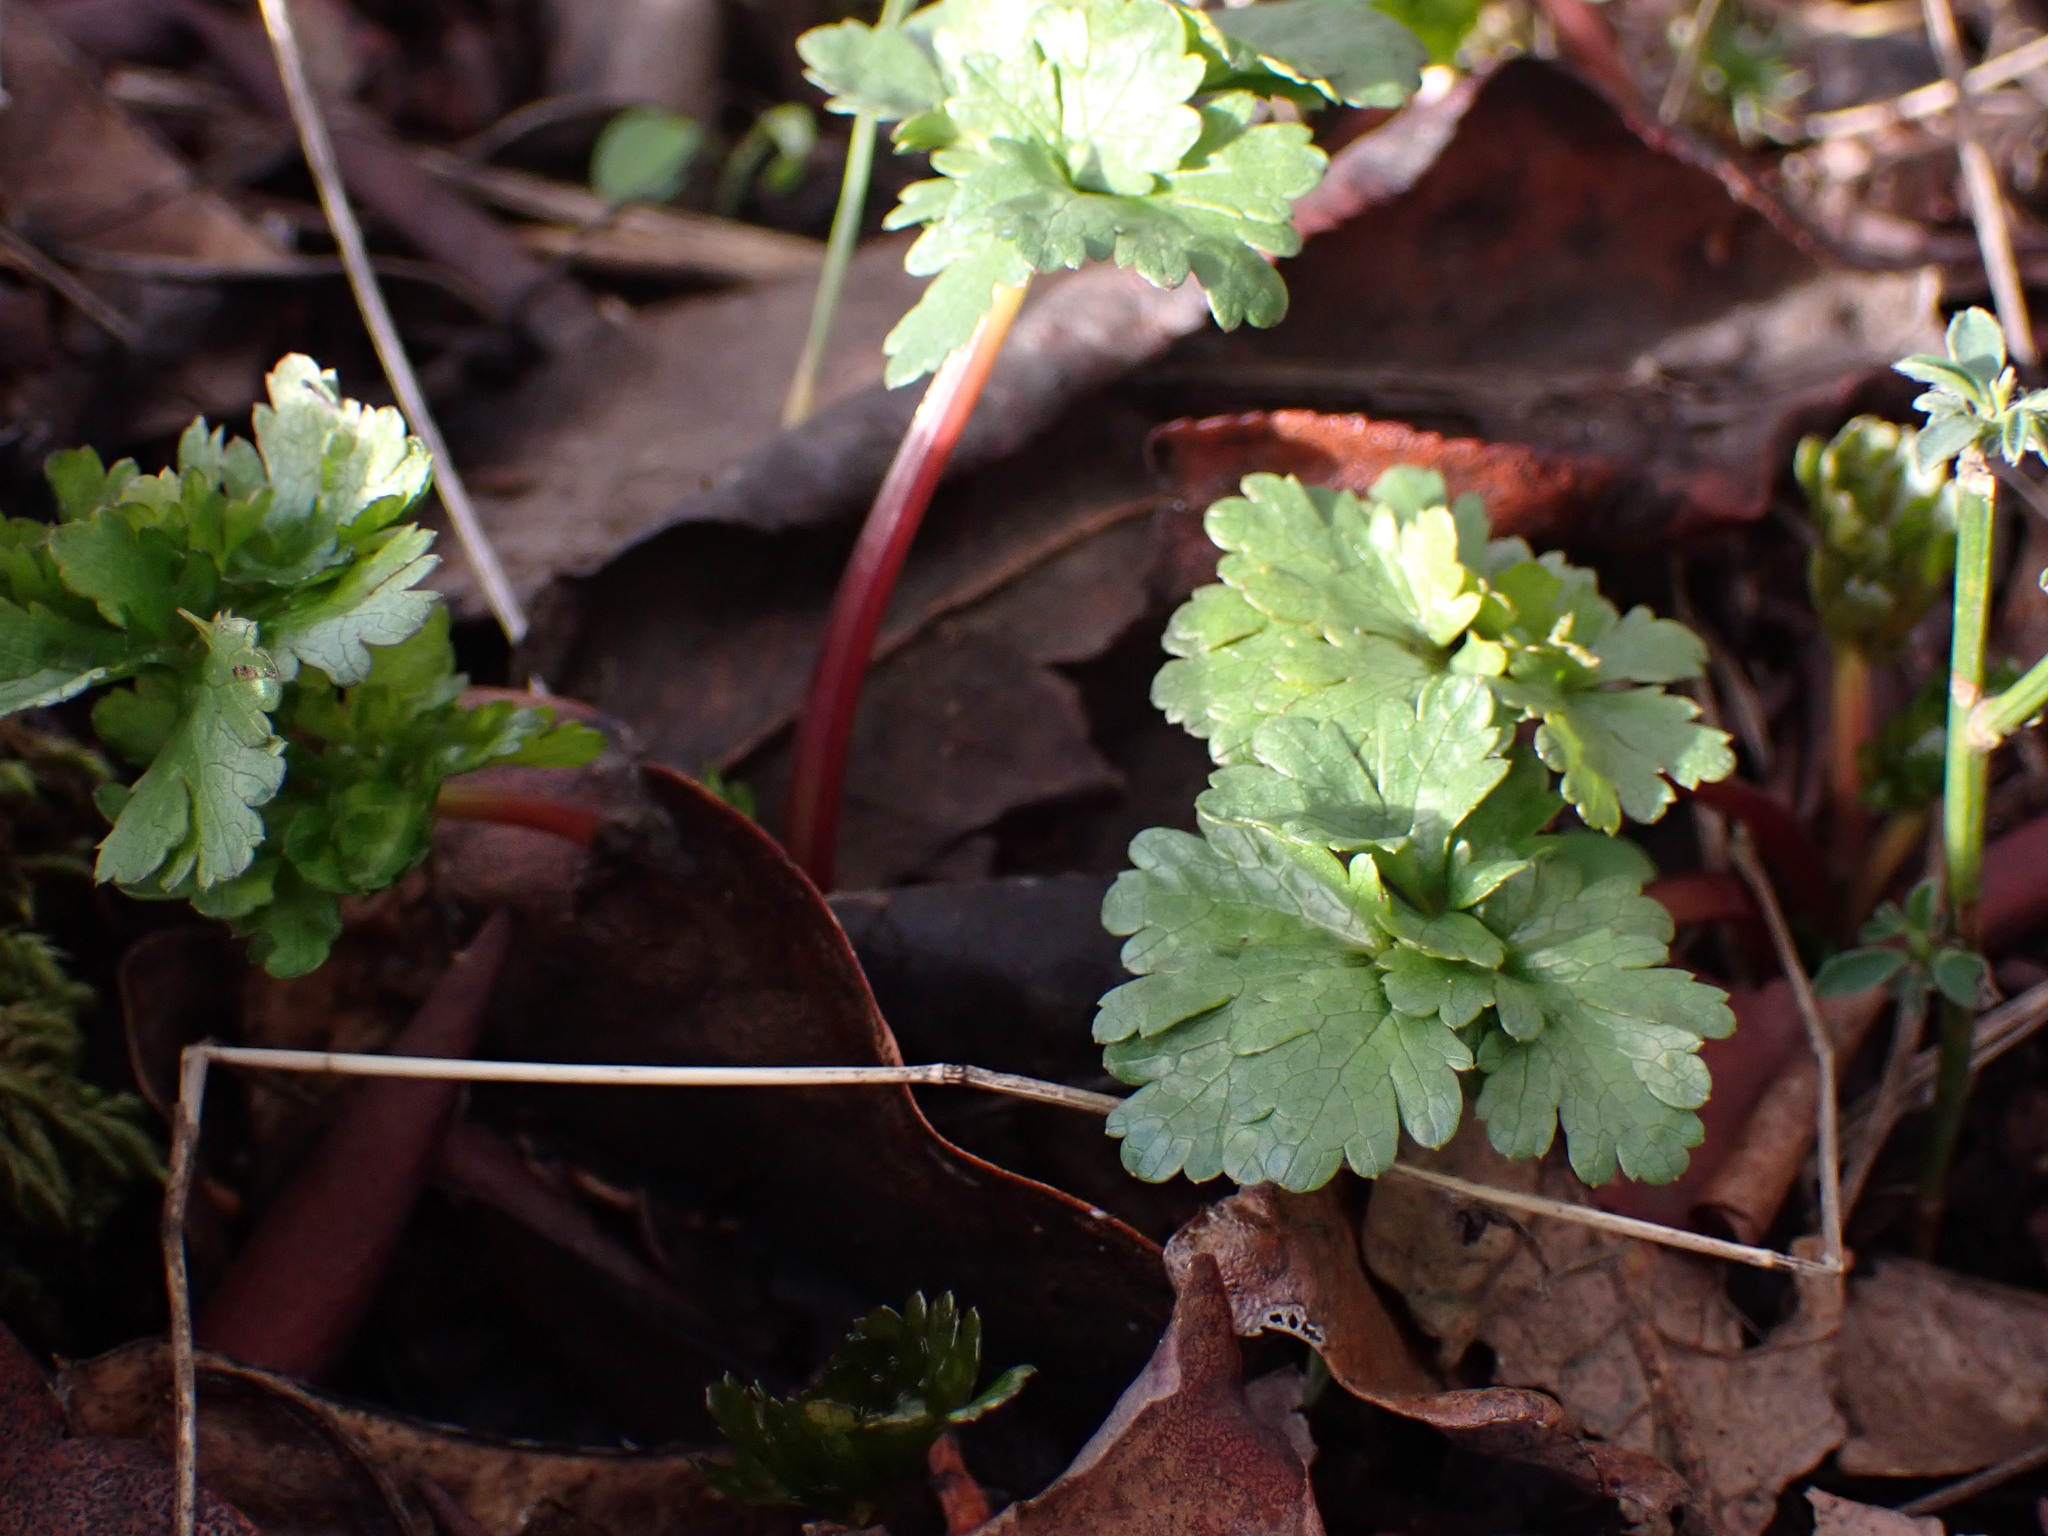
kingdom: Plantae
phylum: Tracheophyta
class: Magnoliopsida
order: Apiales
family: Apiaceae
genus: Sanicula
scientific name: Sanicula graveolens
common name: Sierra sanicle
